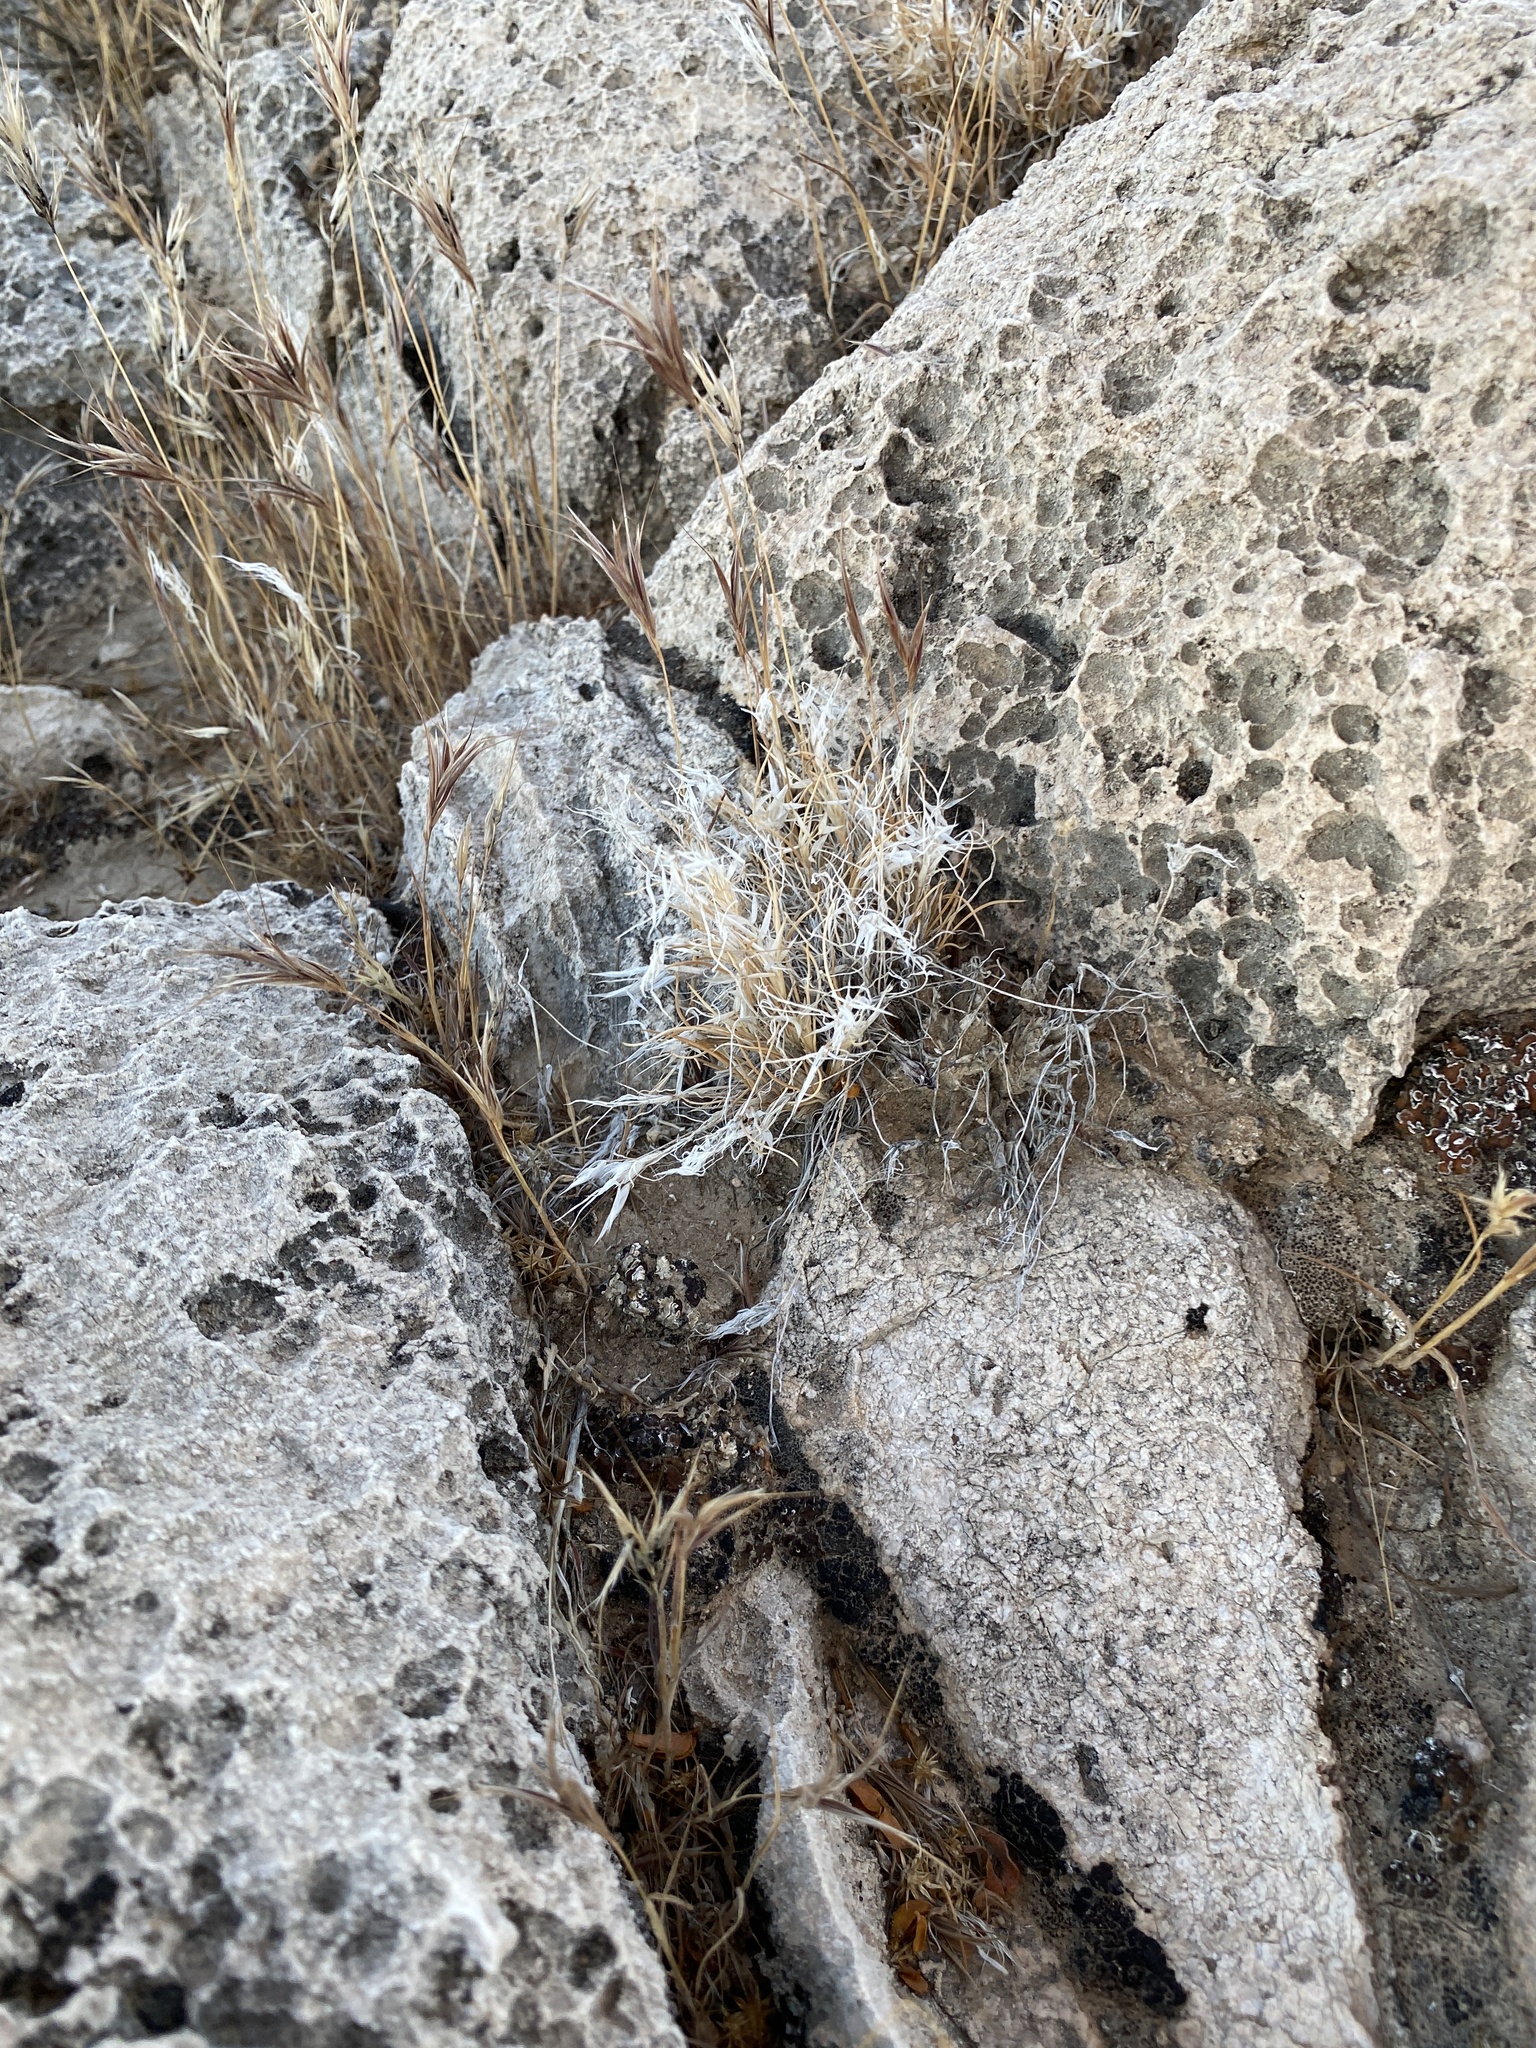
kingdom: Plantae
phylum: Tracheophyta
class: Liliopsida
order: Poales
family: Poaceae
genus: Dasyochloa
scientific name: Dasyochloa pulchella
